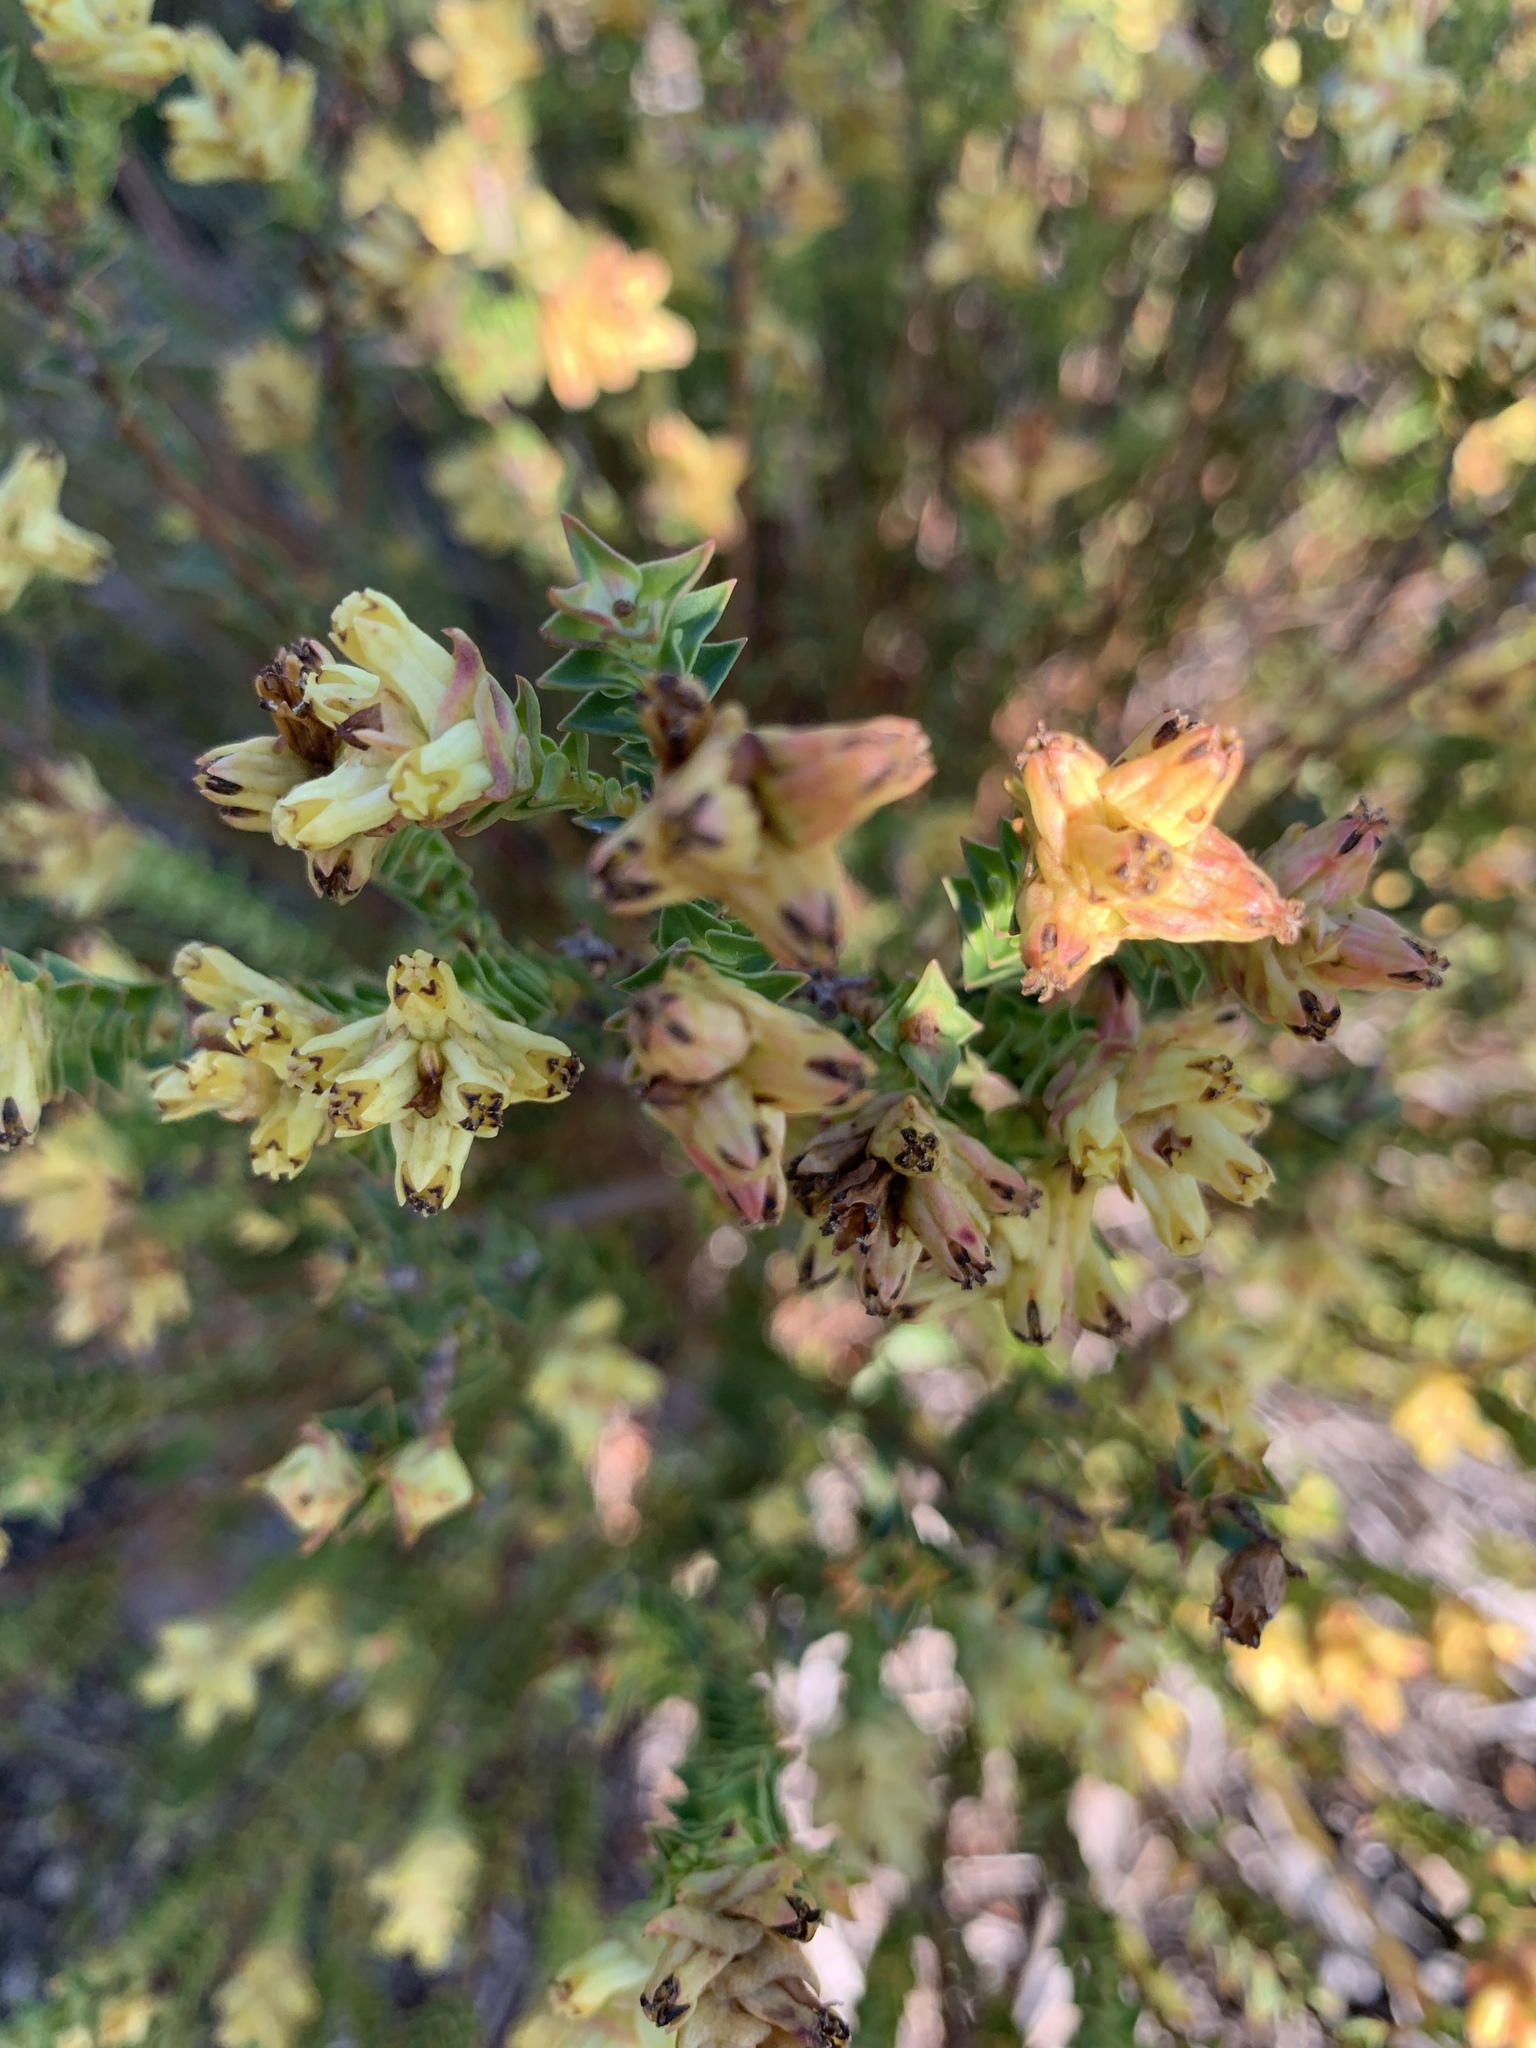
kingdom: Plantae
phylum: Tracheophyta
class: Magnoliopsida
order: Myrtales
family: Penaeaceae
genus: Penaea
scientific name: Penaea mucronata
